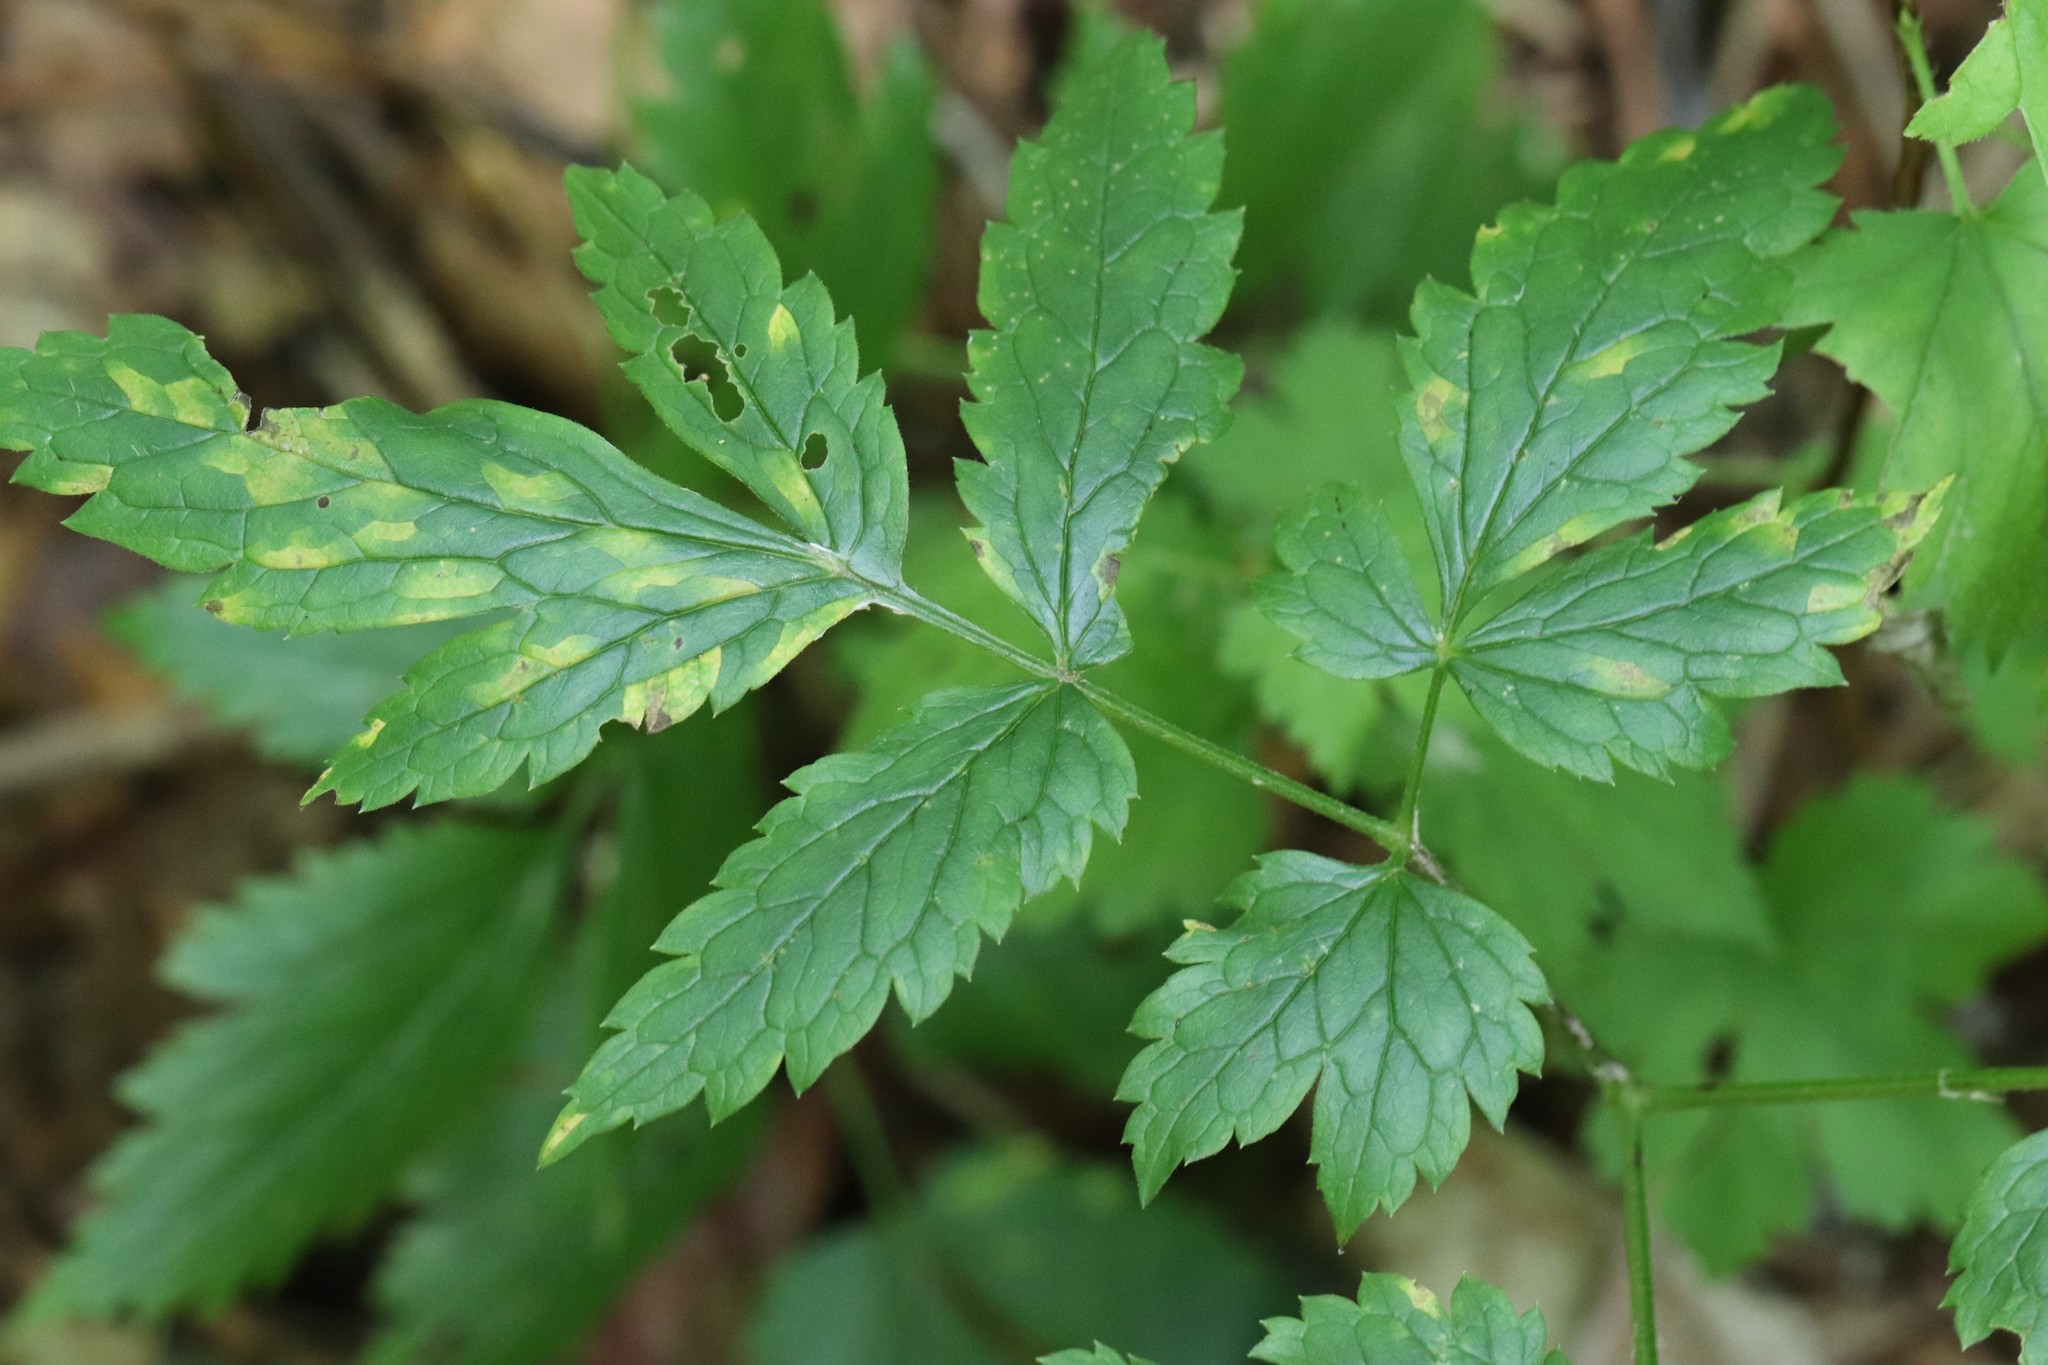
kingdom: Plantae
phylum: Tracheophyta
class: Magnoliopsida
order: Ranunculales
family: Ranunculaceae
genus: Actaea
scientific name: Actaea simplex
